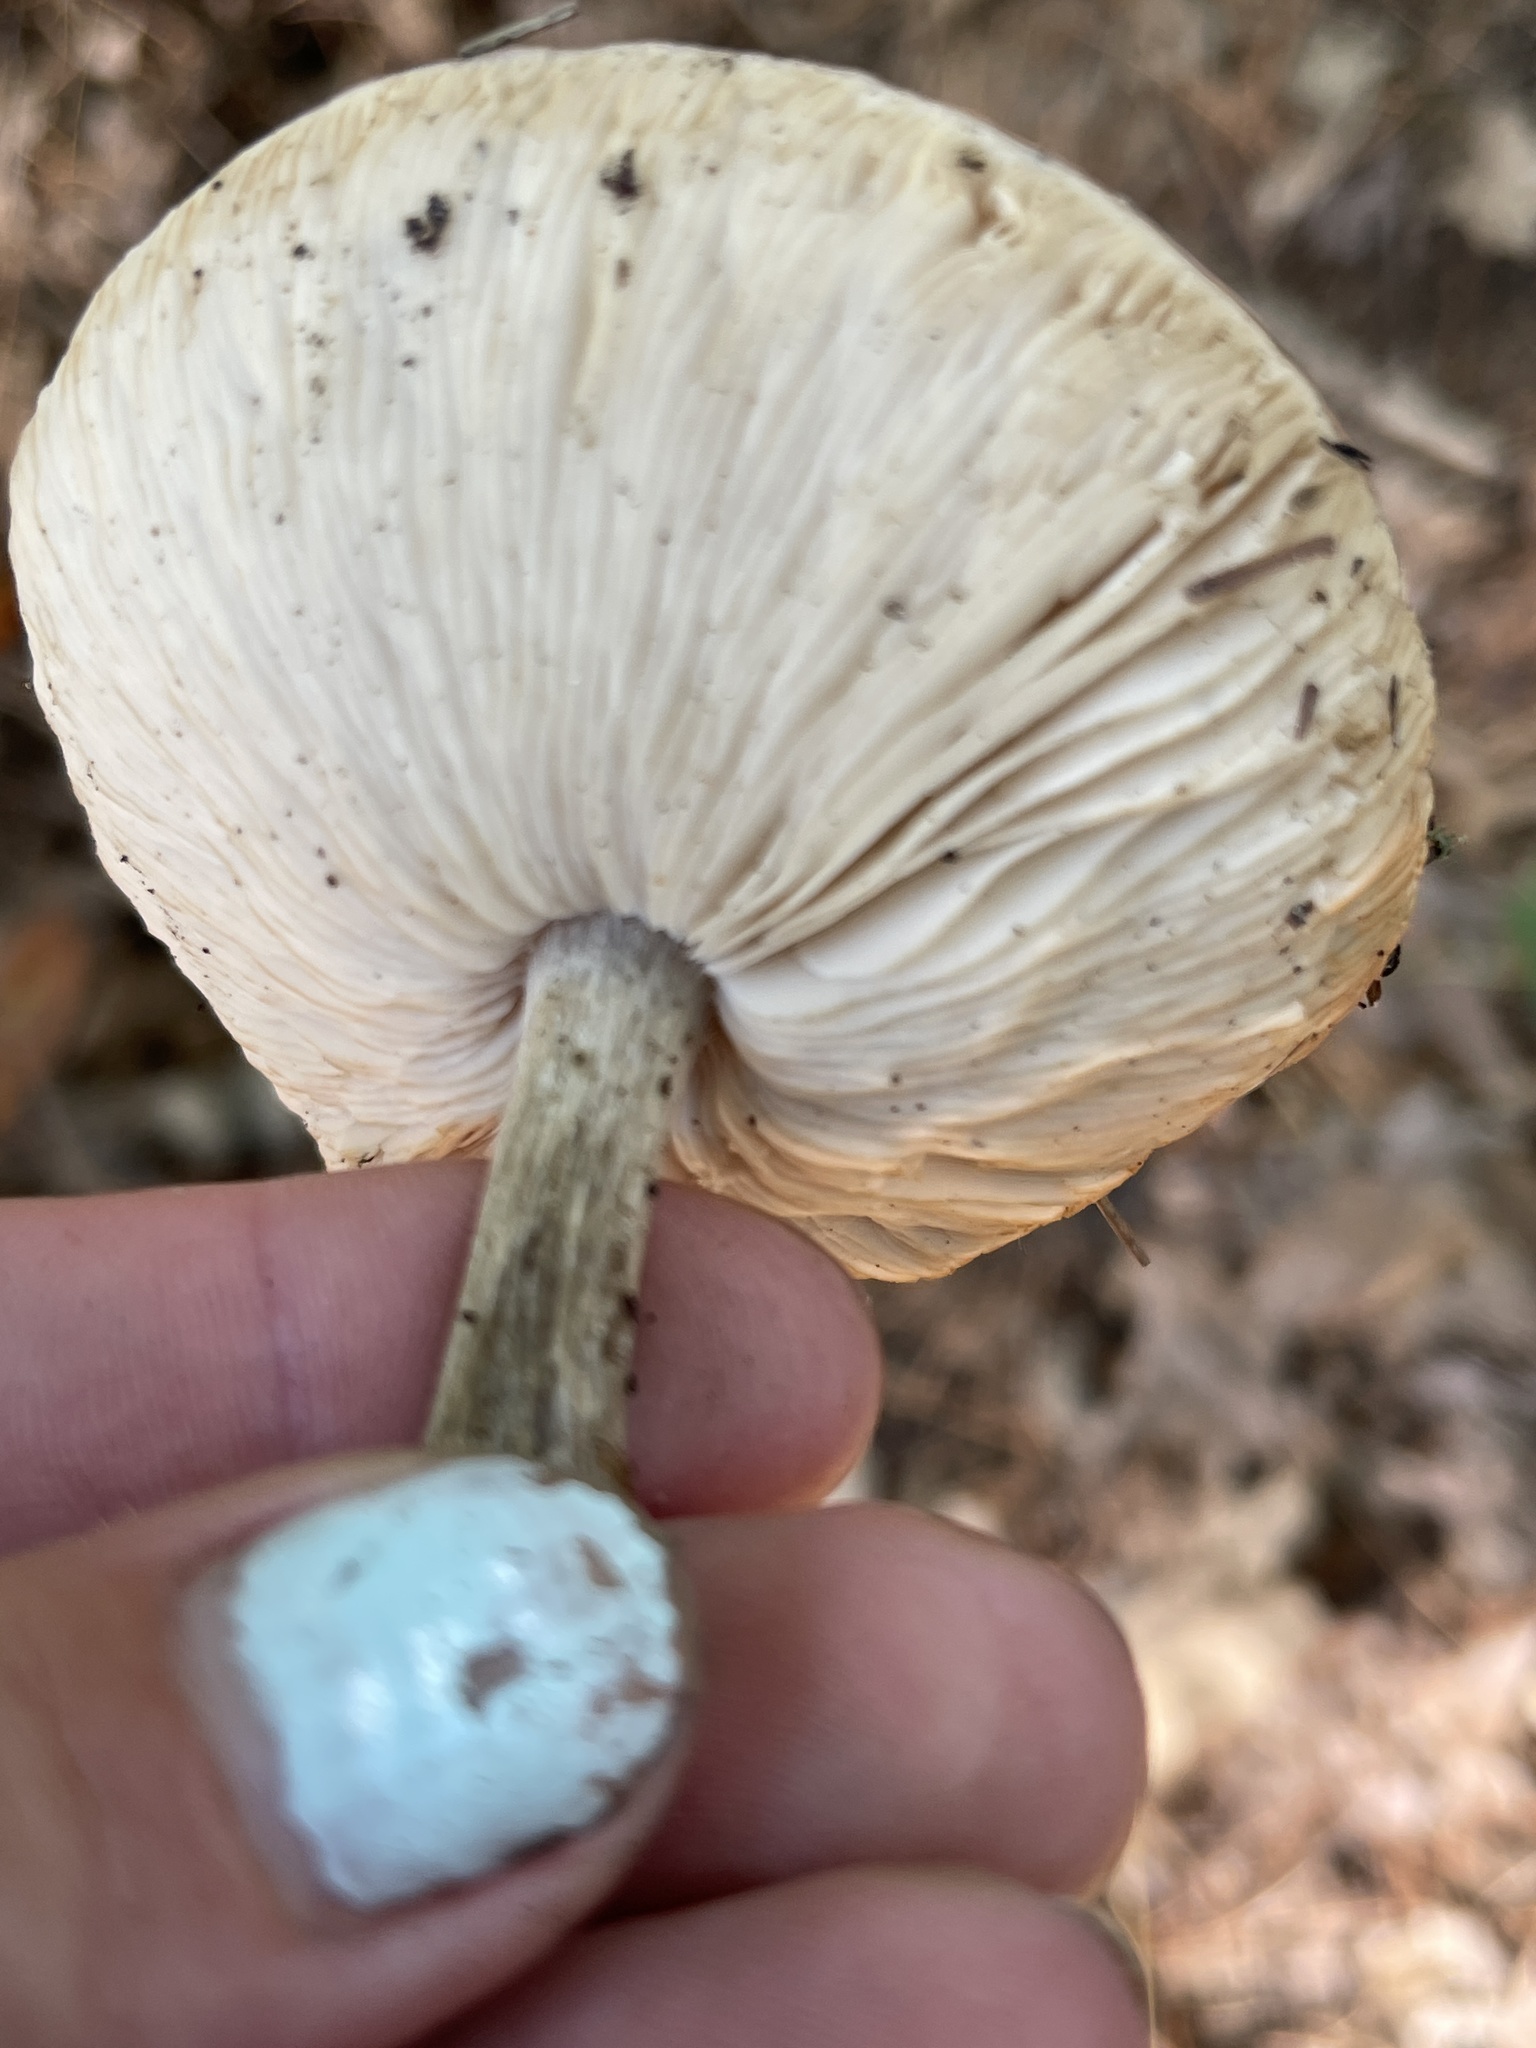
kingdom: Fungi
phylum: Basidiomycota
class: Agaricomycetes
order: Russulales
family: Russulaceae
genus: Lactarius
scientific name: Lactarius argillaceifolius
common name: Clay-gilled milkcap
